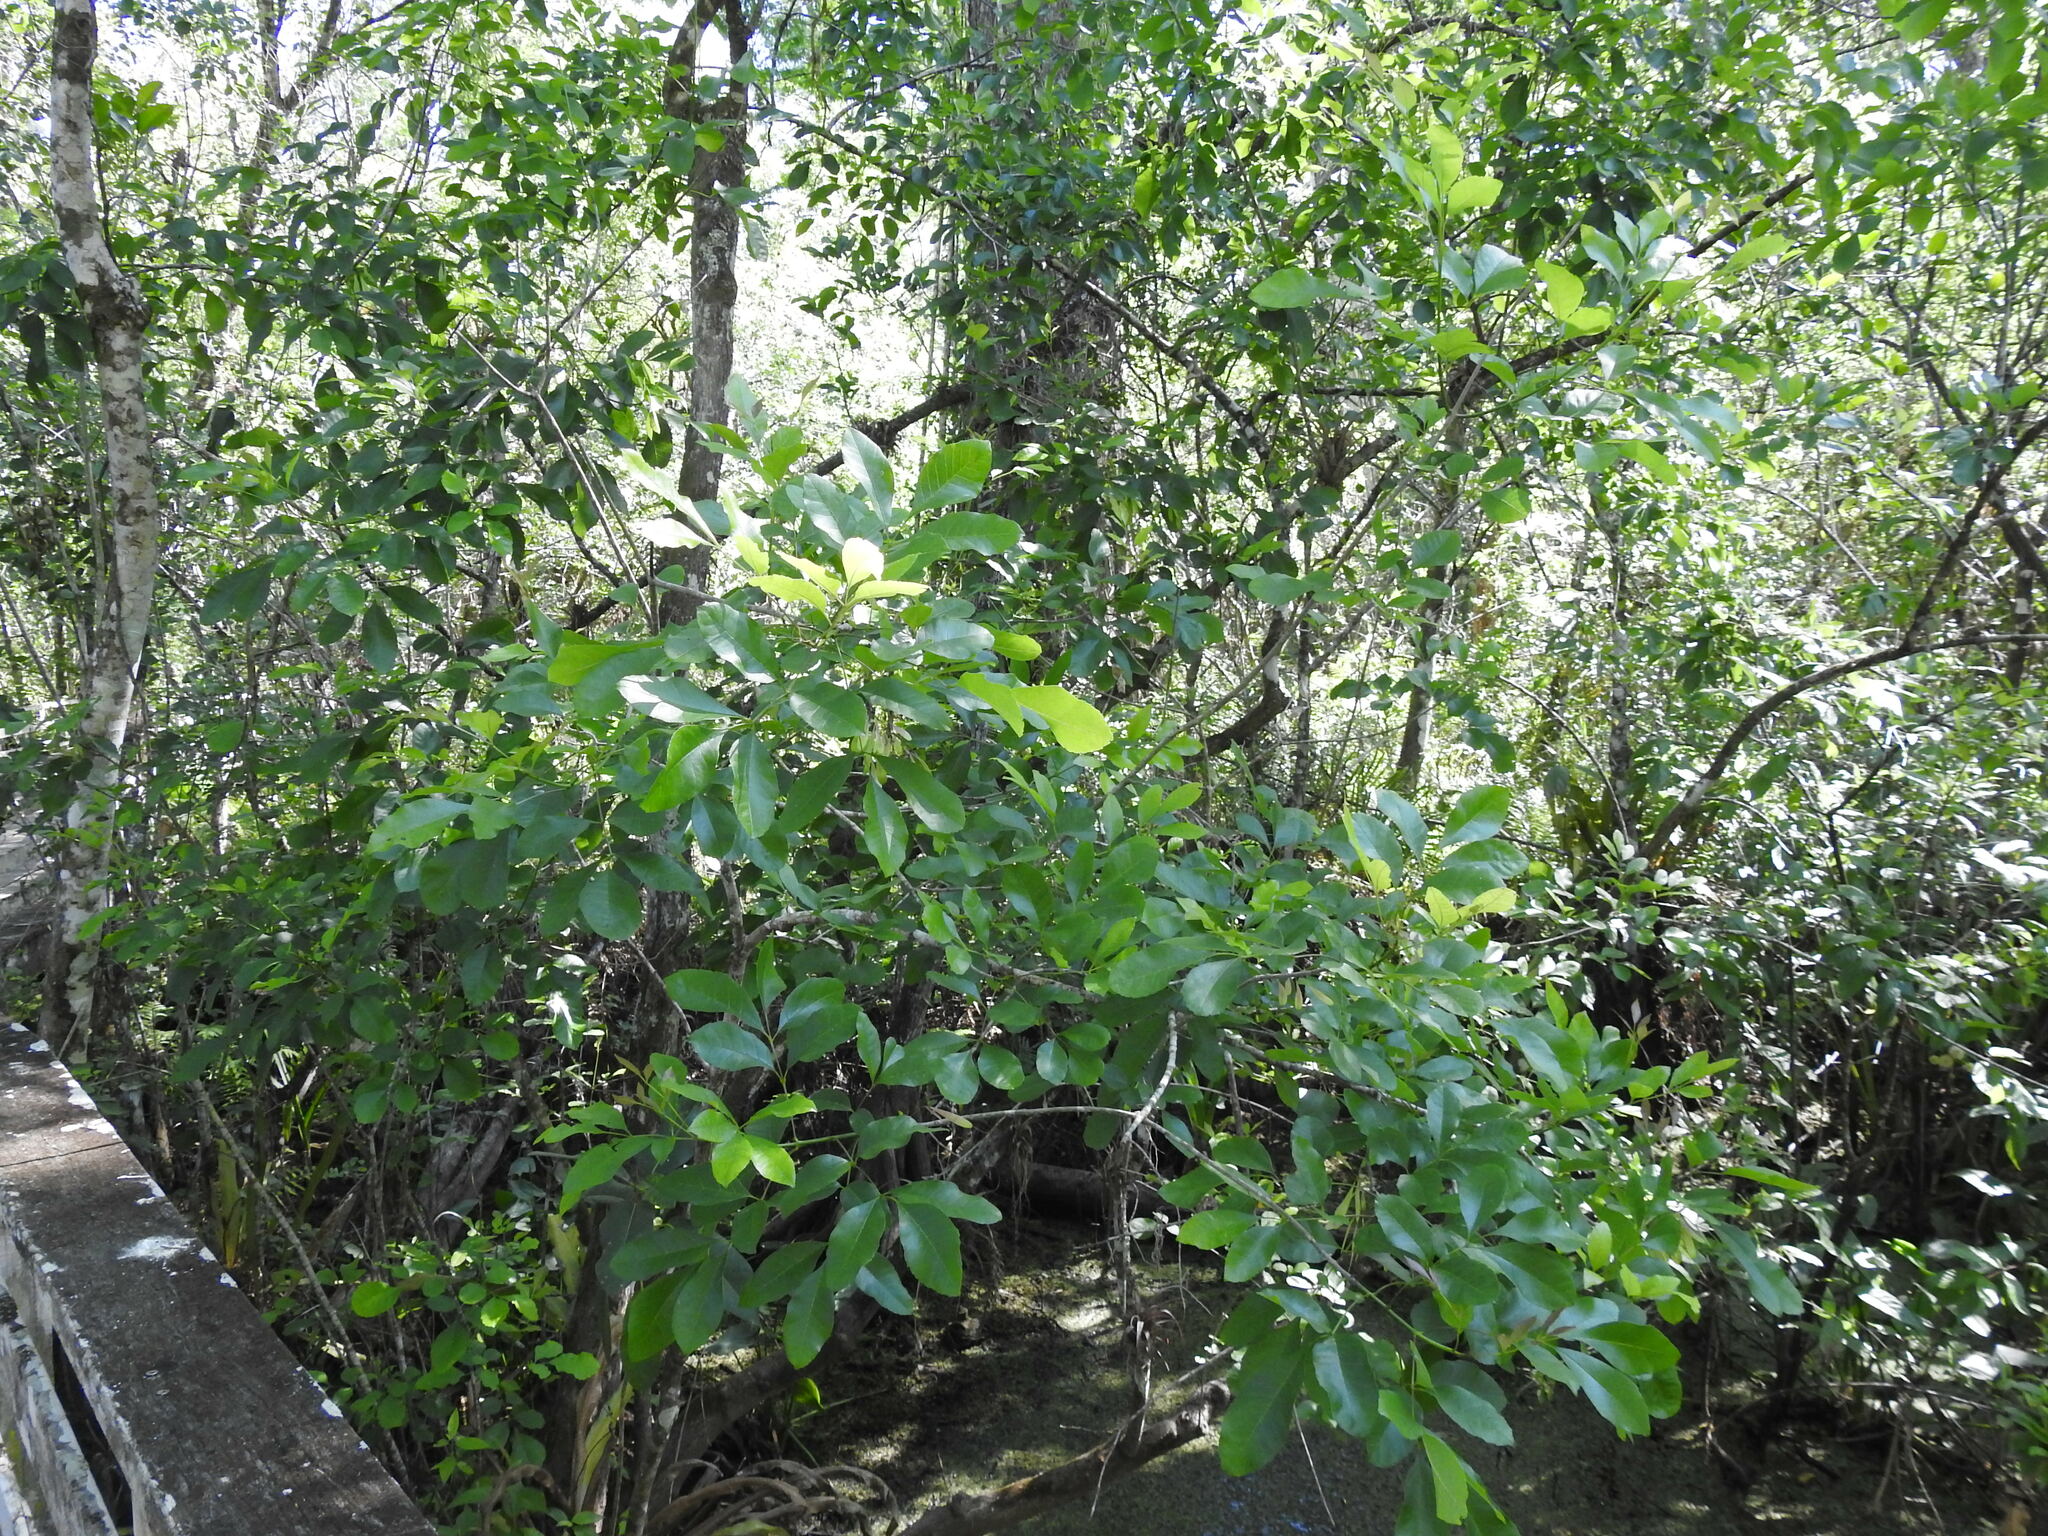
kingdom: Plantae
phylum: Tracheophyta
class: Magnoliopsida
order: Lamiales
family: Oleaceae
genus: Fraxinus
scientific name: Fraxinus caroliniana
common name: Carolina ash
